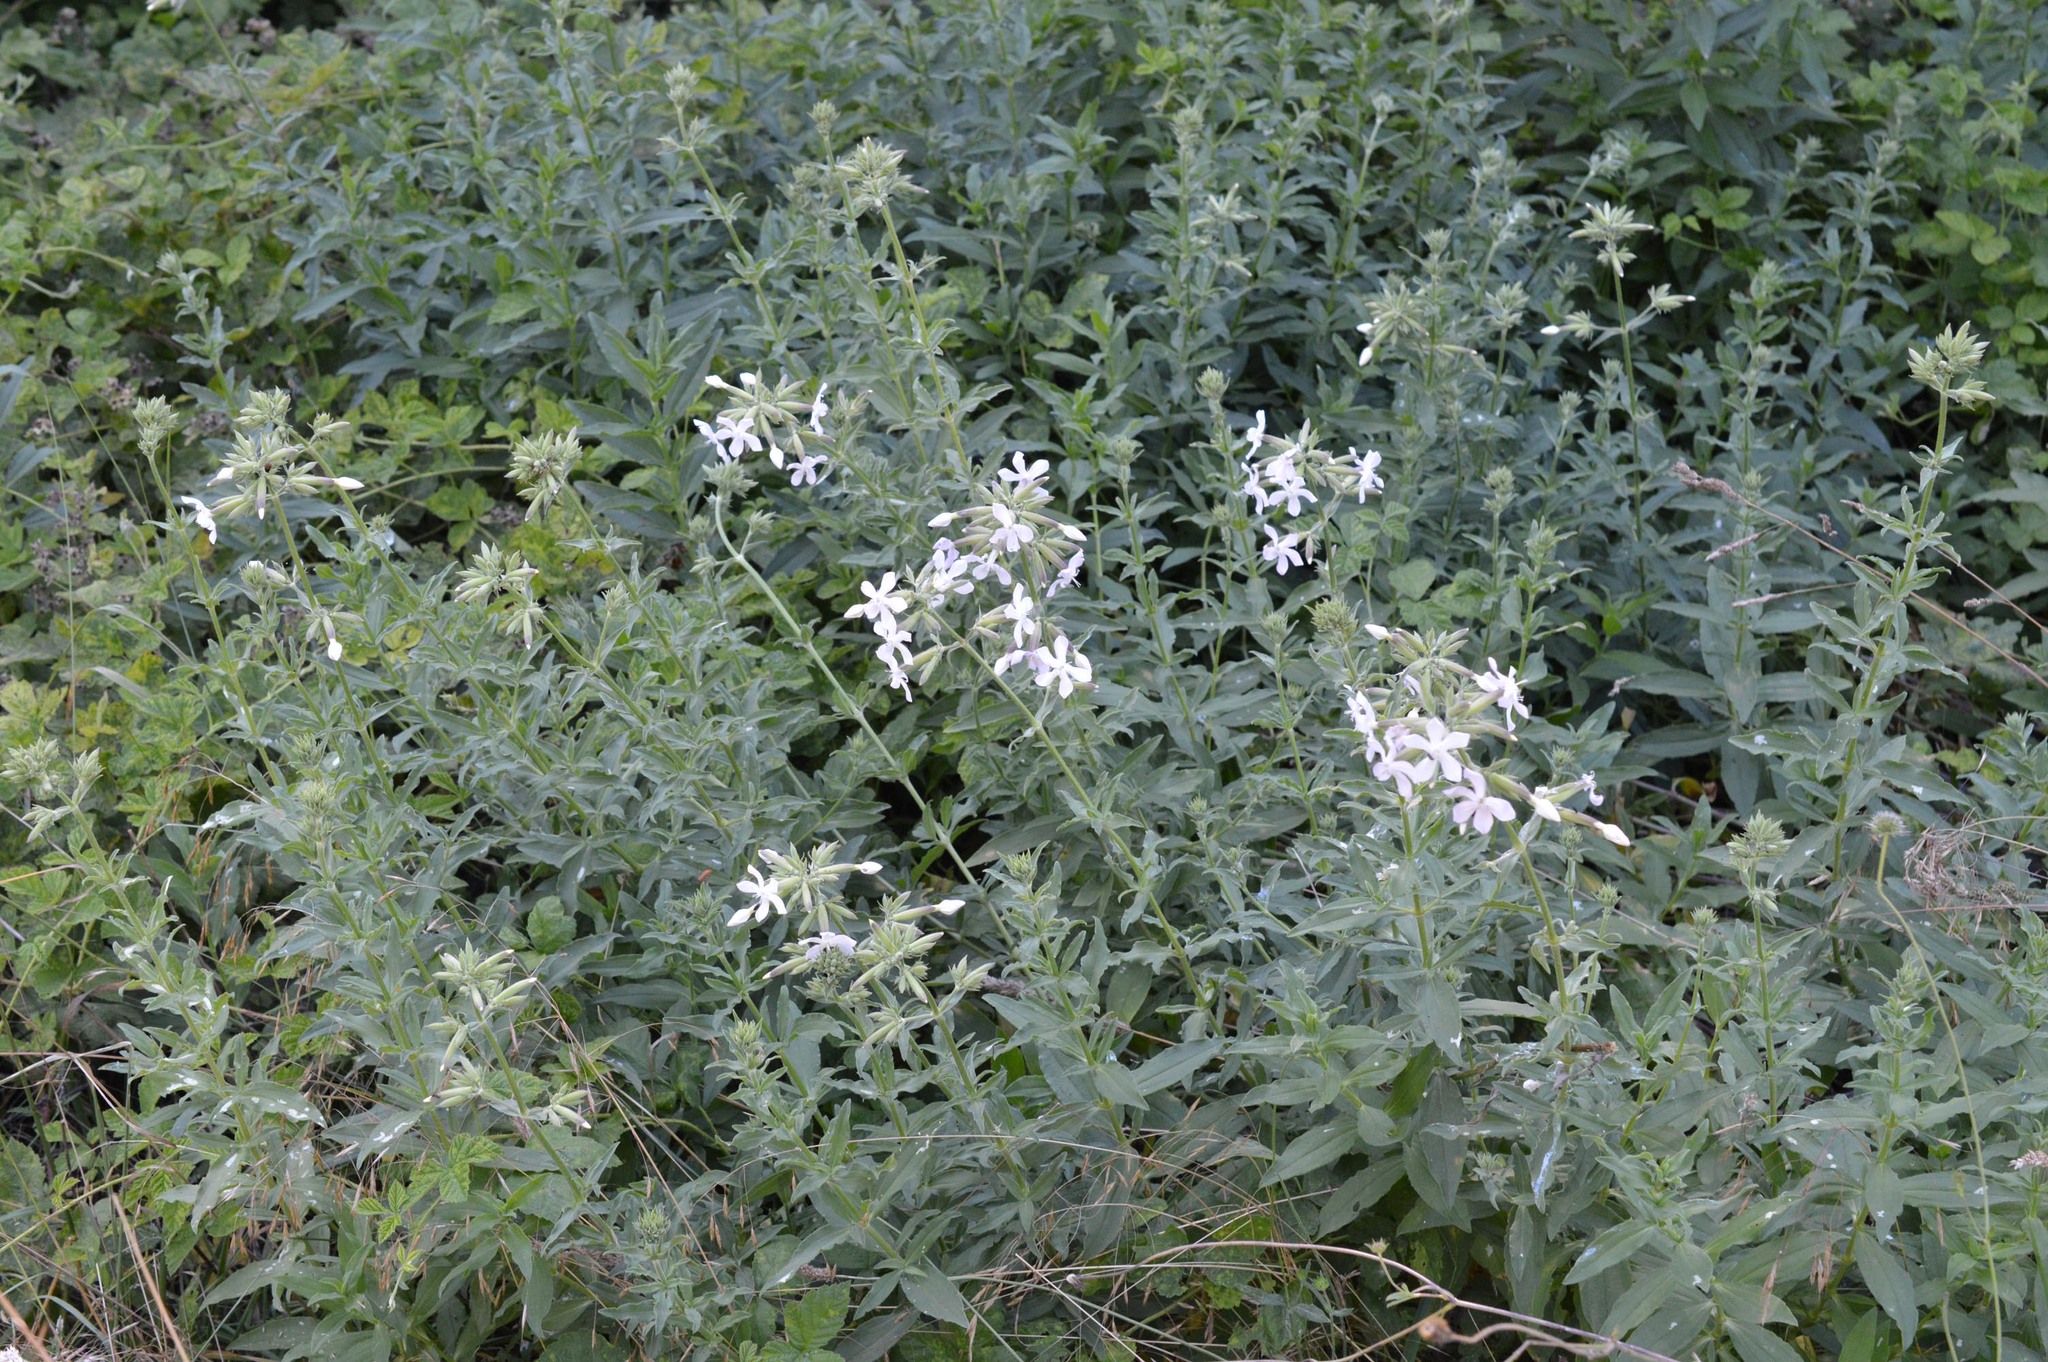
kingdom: Plantae
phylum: Tracheophyta
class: Magnoliopsida
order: Caryophyllales
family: Caryophyllaceae
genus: Saponaria
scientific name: Saponaria officinalis
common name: Soapwort
